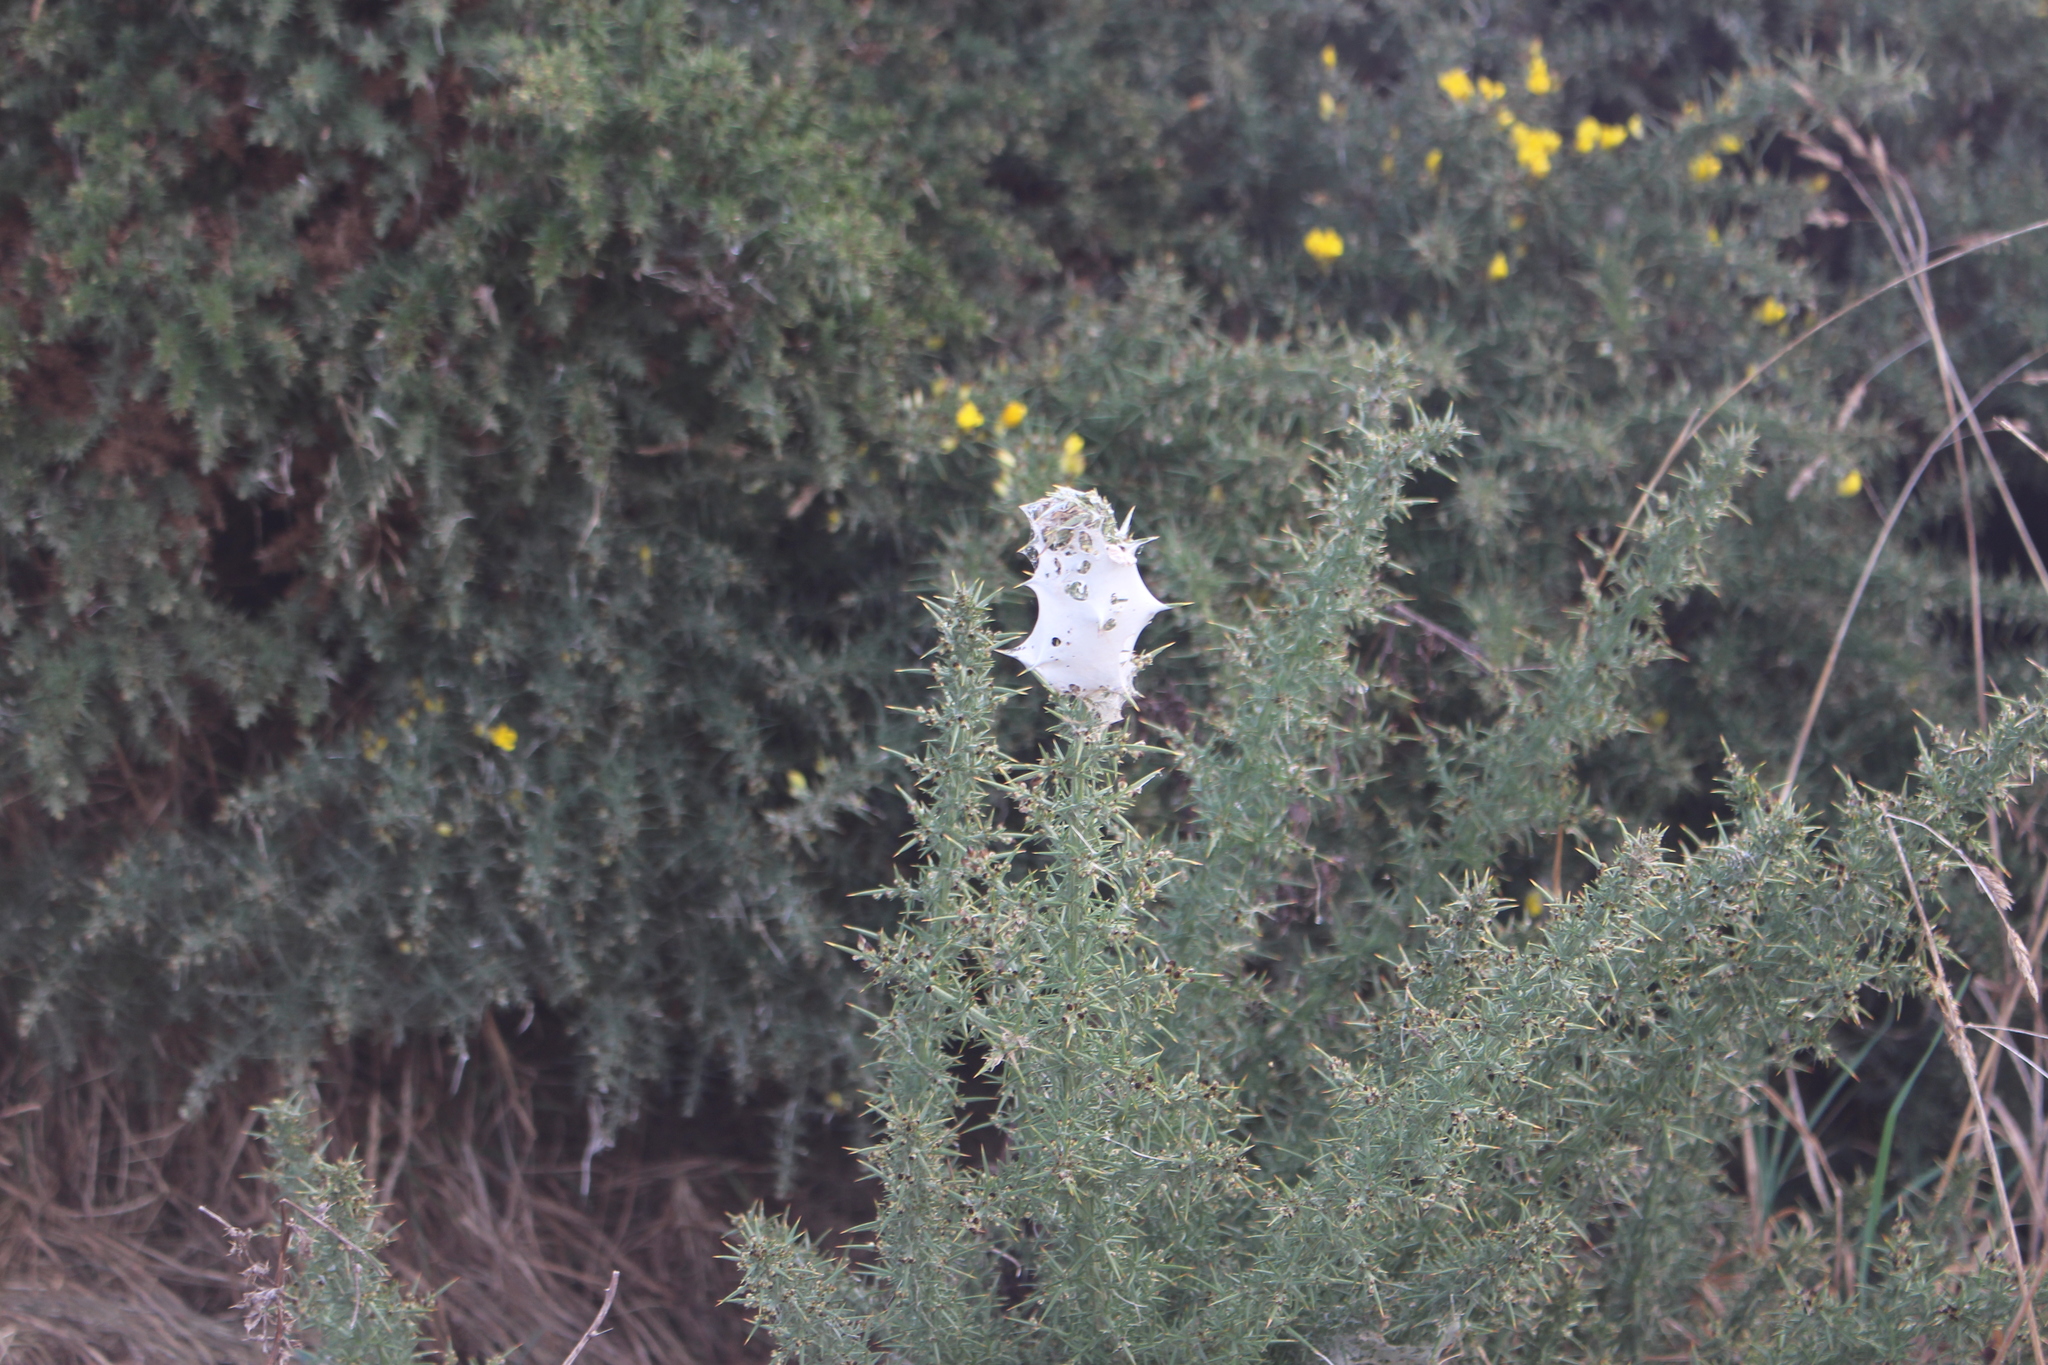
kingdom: Animalia
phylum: Arthropoda
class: Arachnida
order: Araneae
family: Pisauridae
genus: Dolomedes
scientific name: Dolomedes minor
